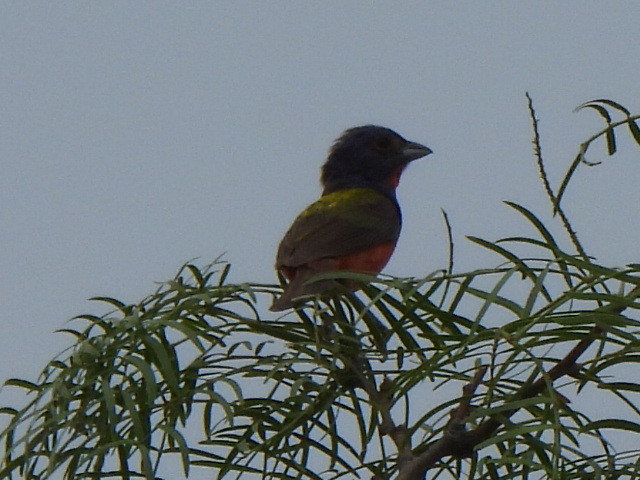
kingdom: Animalia
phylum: Chordata
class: Aves
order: Passeriformes
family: Cardinalidae
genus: Passerina
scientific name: Passerina ciris
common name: Painted bunting
